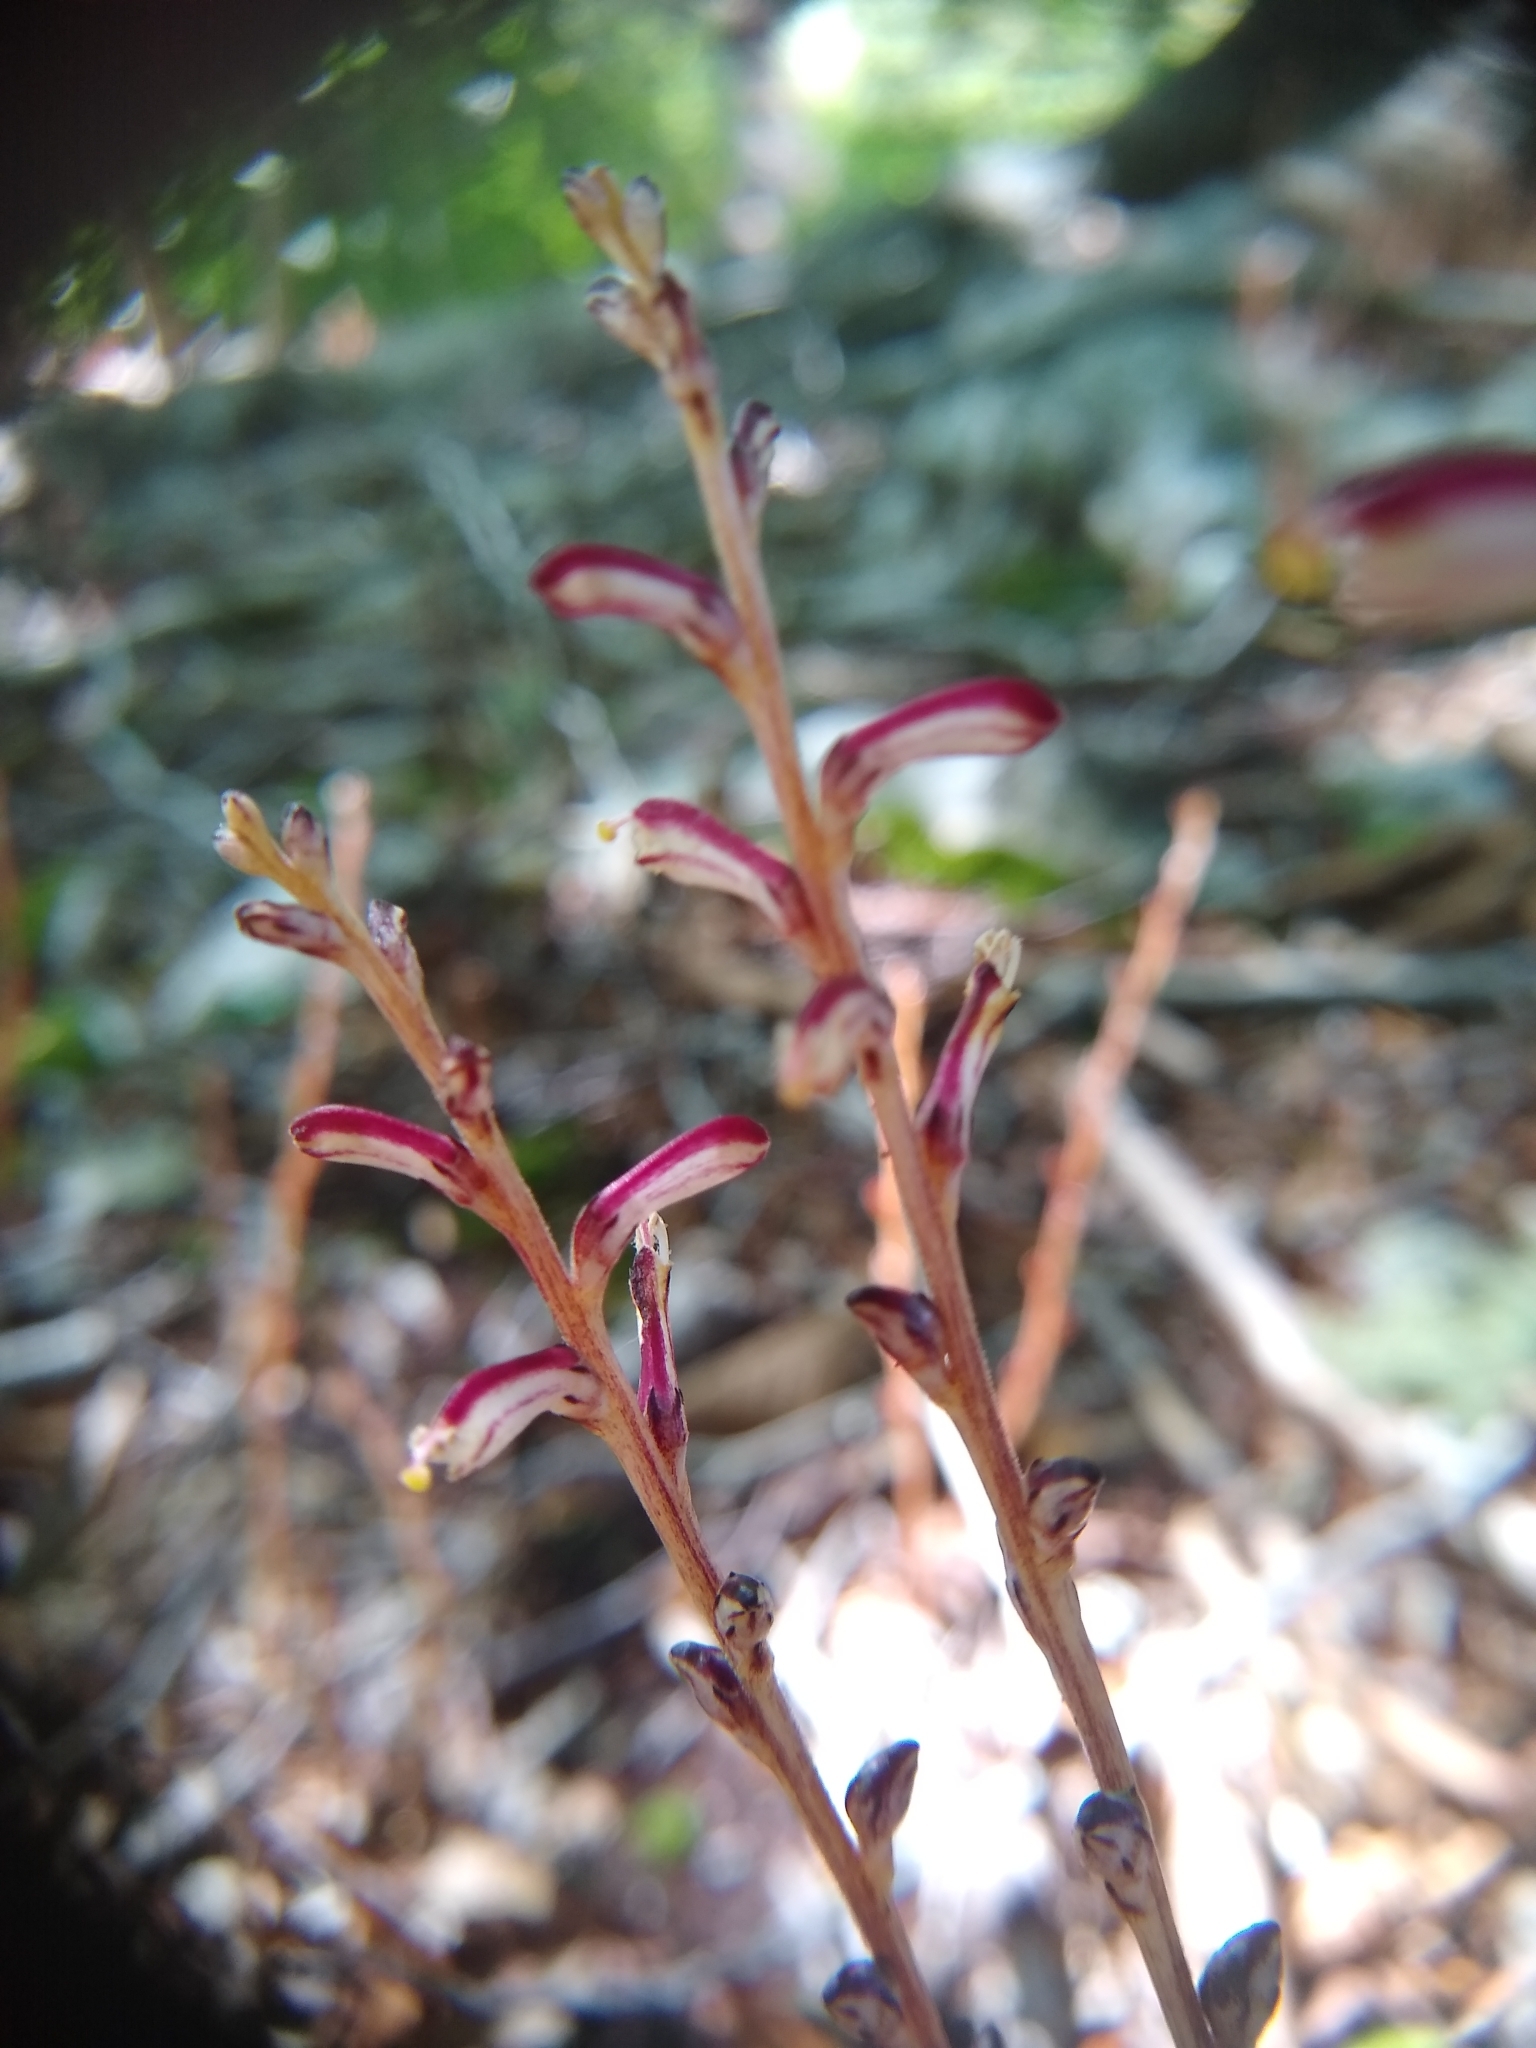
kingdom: Plantae
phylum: Tracheophyta
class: Magnoliopsida
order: Lamiales
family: Orobanchaceae
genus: Epifagus
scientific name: Epifagus virginiana
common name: Beechdrops
